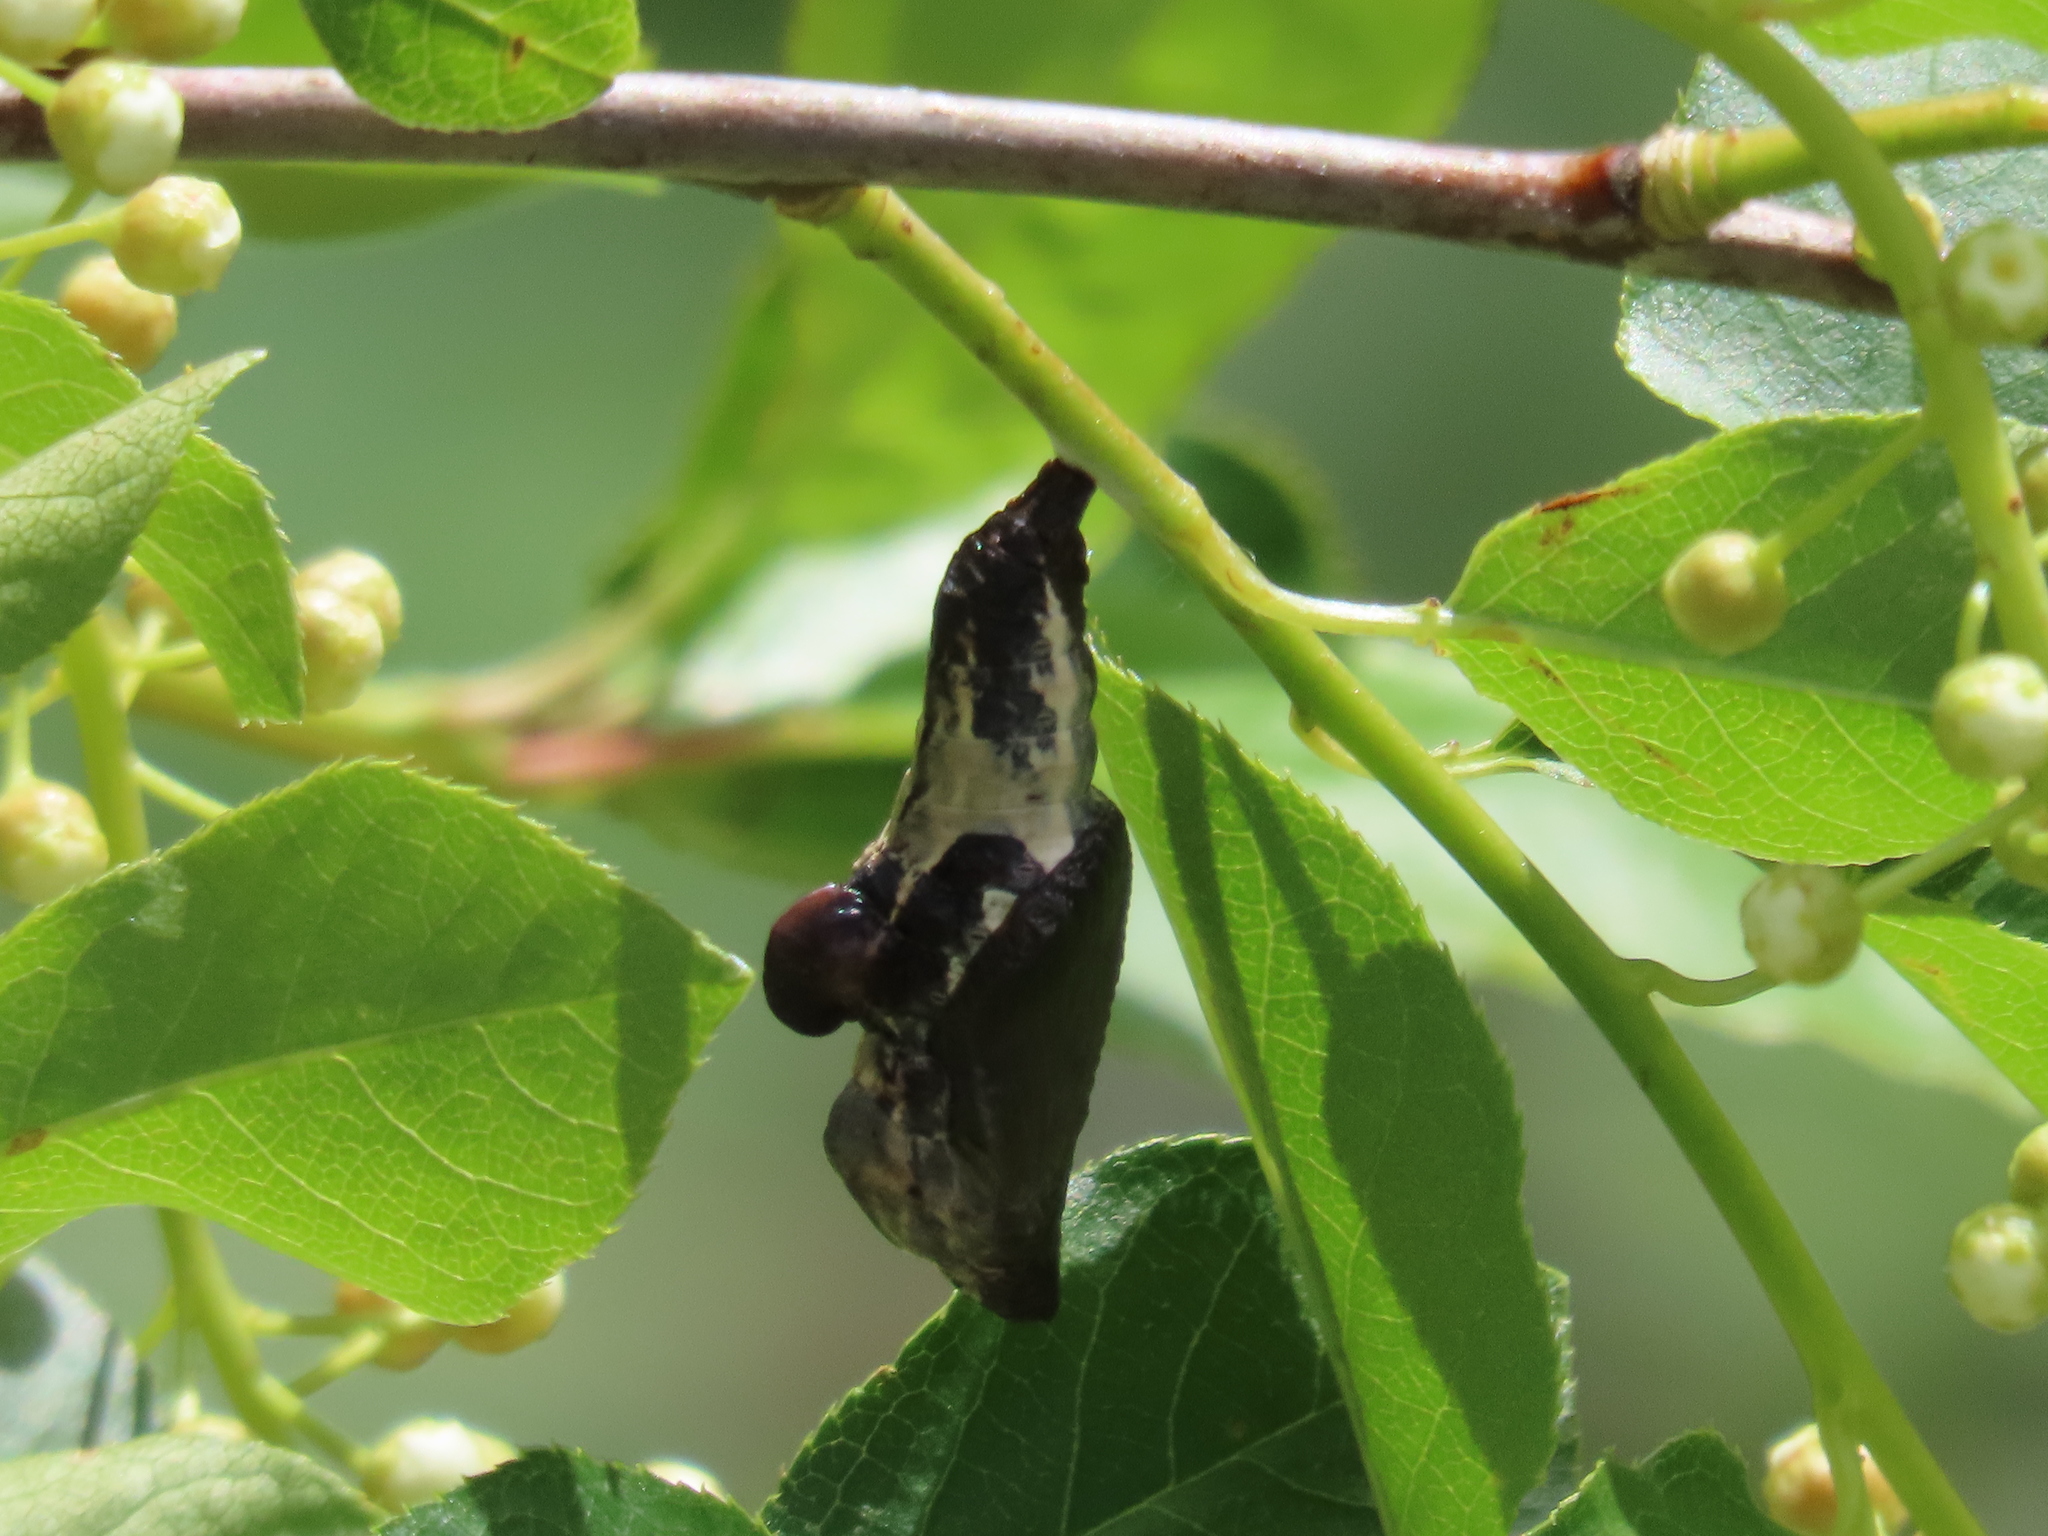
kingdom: Animalia
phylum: Arthropoda
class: Insecta
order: Lepidoptera
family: Nymphalidae
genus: Limenitis
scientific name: Limenitis lorquini
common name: Lorquin's admiral
